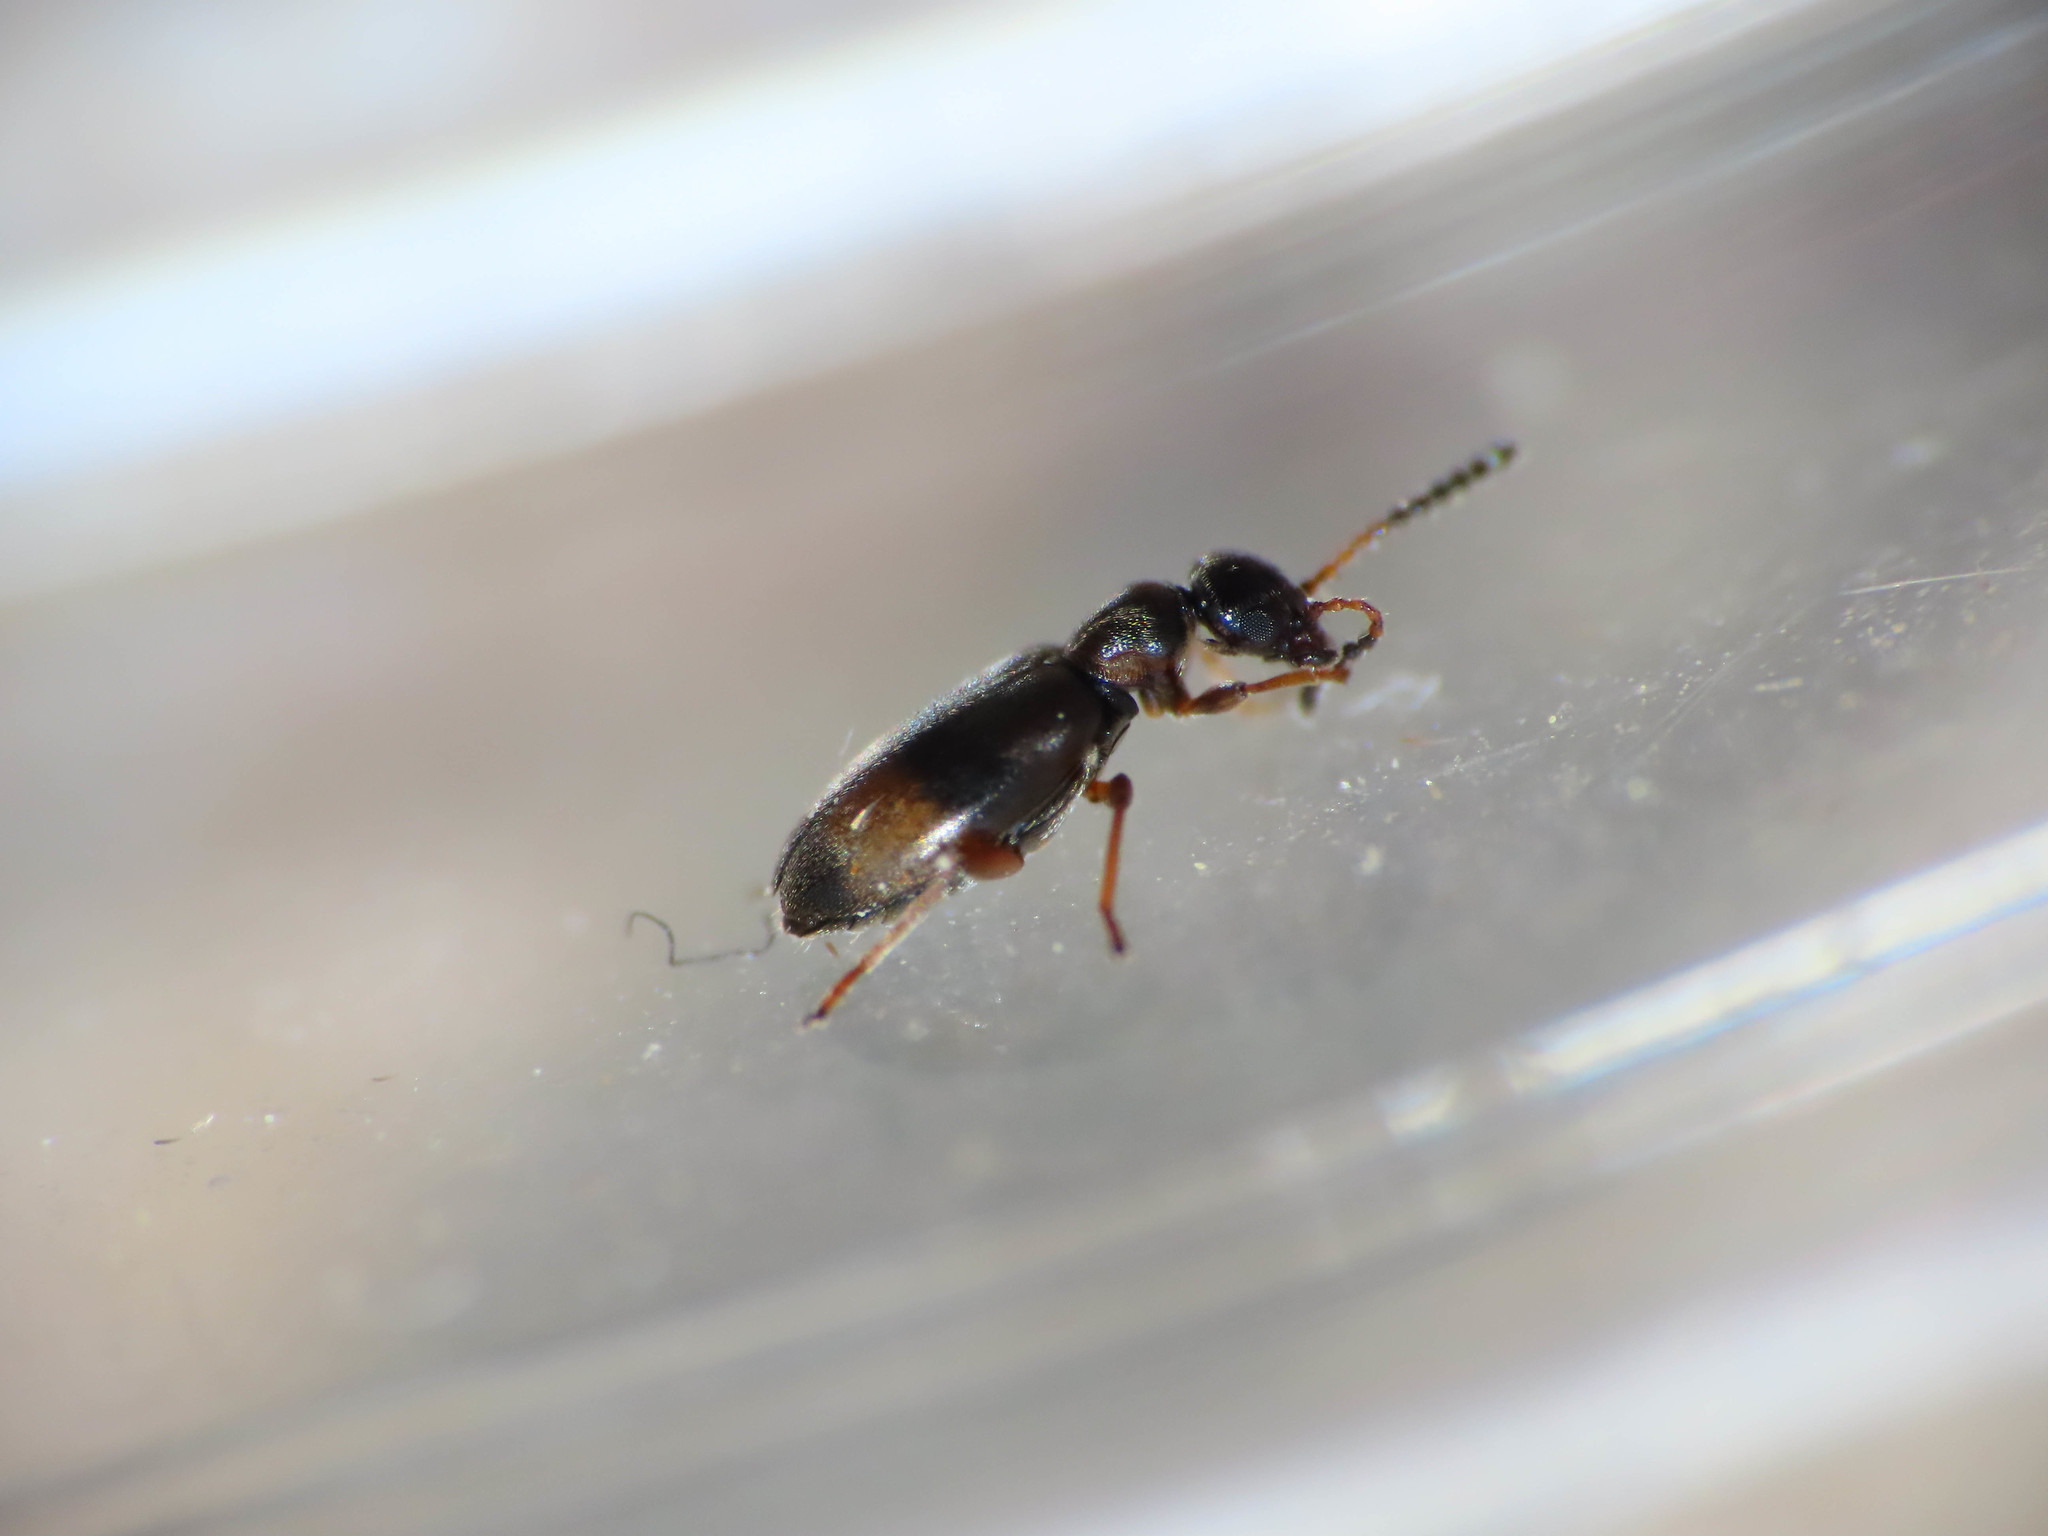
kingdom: Animalia
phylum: Arthropoda
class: Insecta
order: Coleoptera
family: Anthicidae
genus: Microhoria
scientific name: Microhoria fasciata
